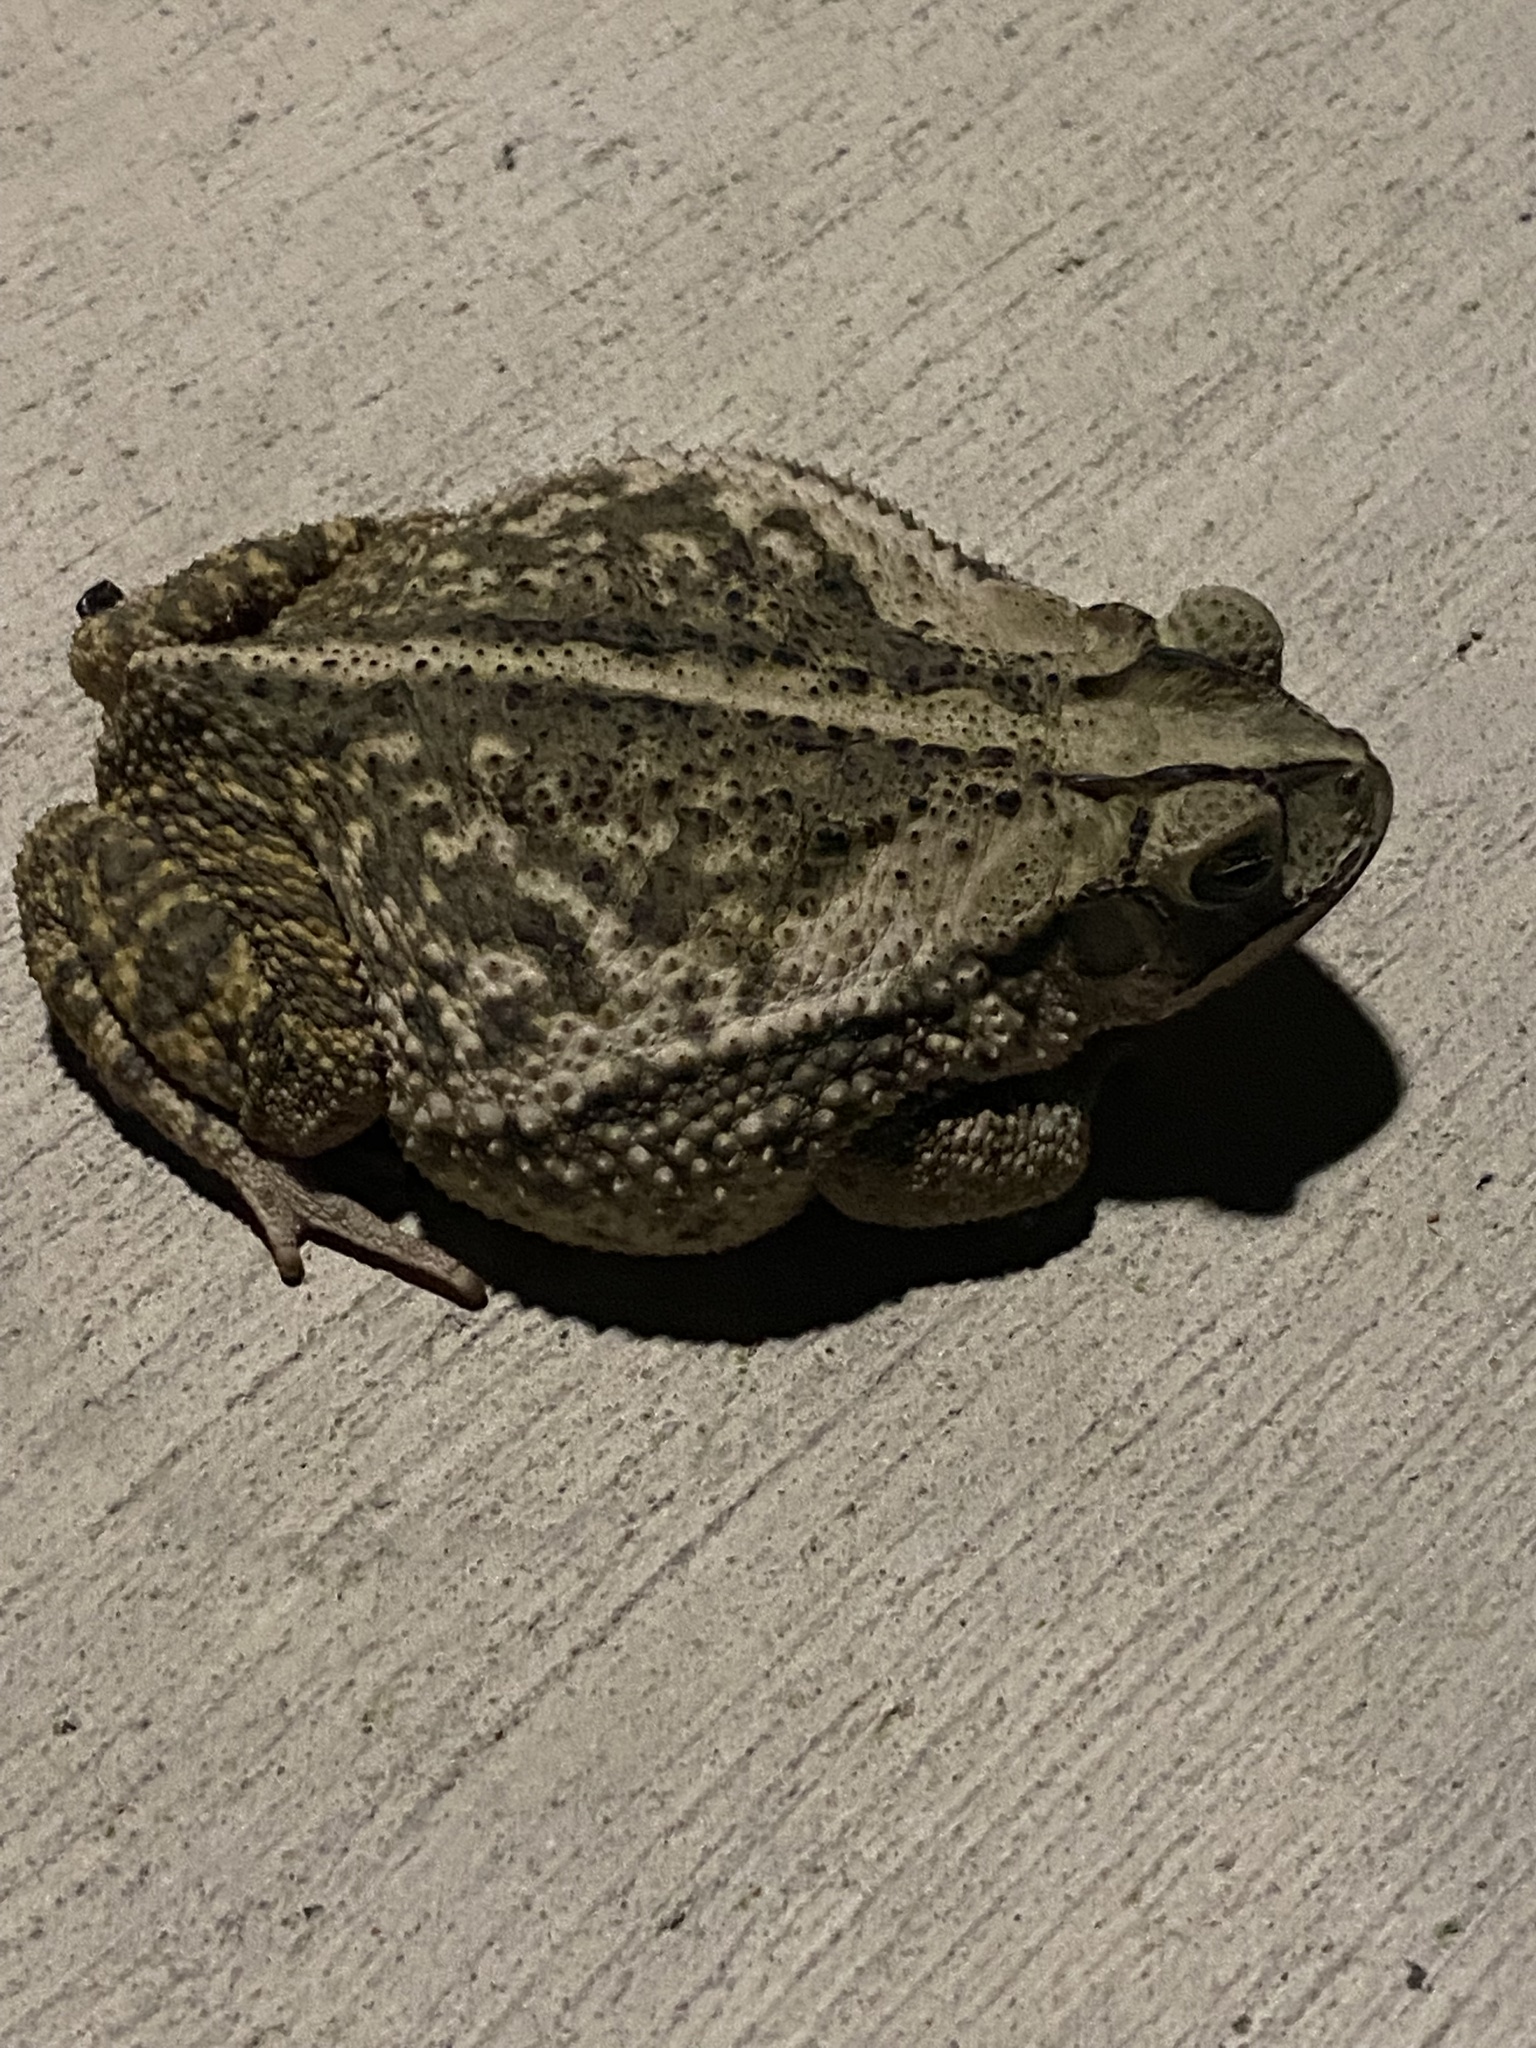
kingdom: Animalia
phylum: Chordata
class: Amphibia
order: Anura
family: Bufonidae
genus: Incilius
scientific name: Incilius nebulifer
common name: Gulf coast toad
